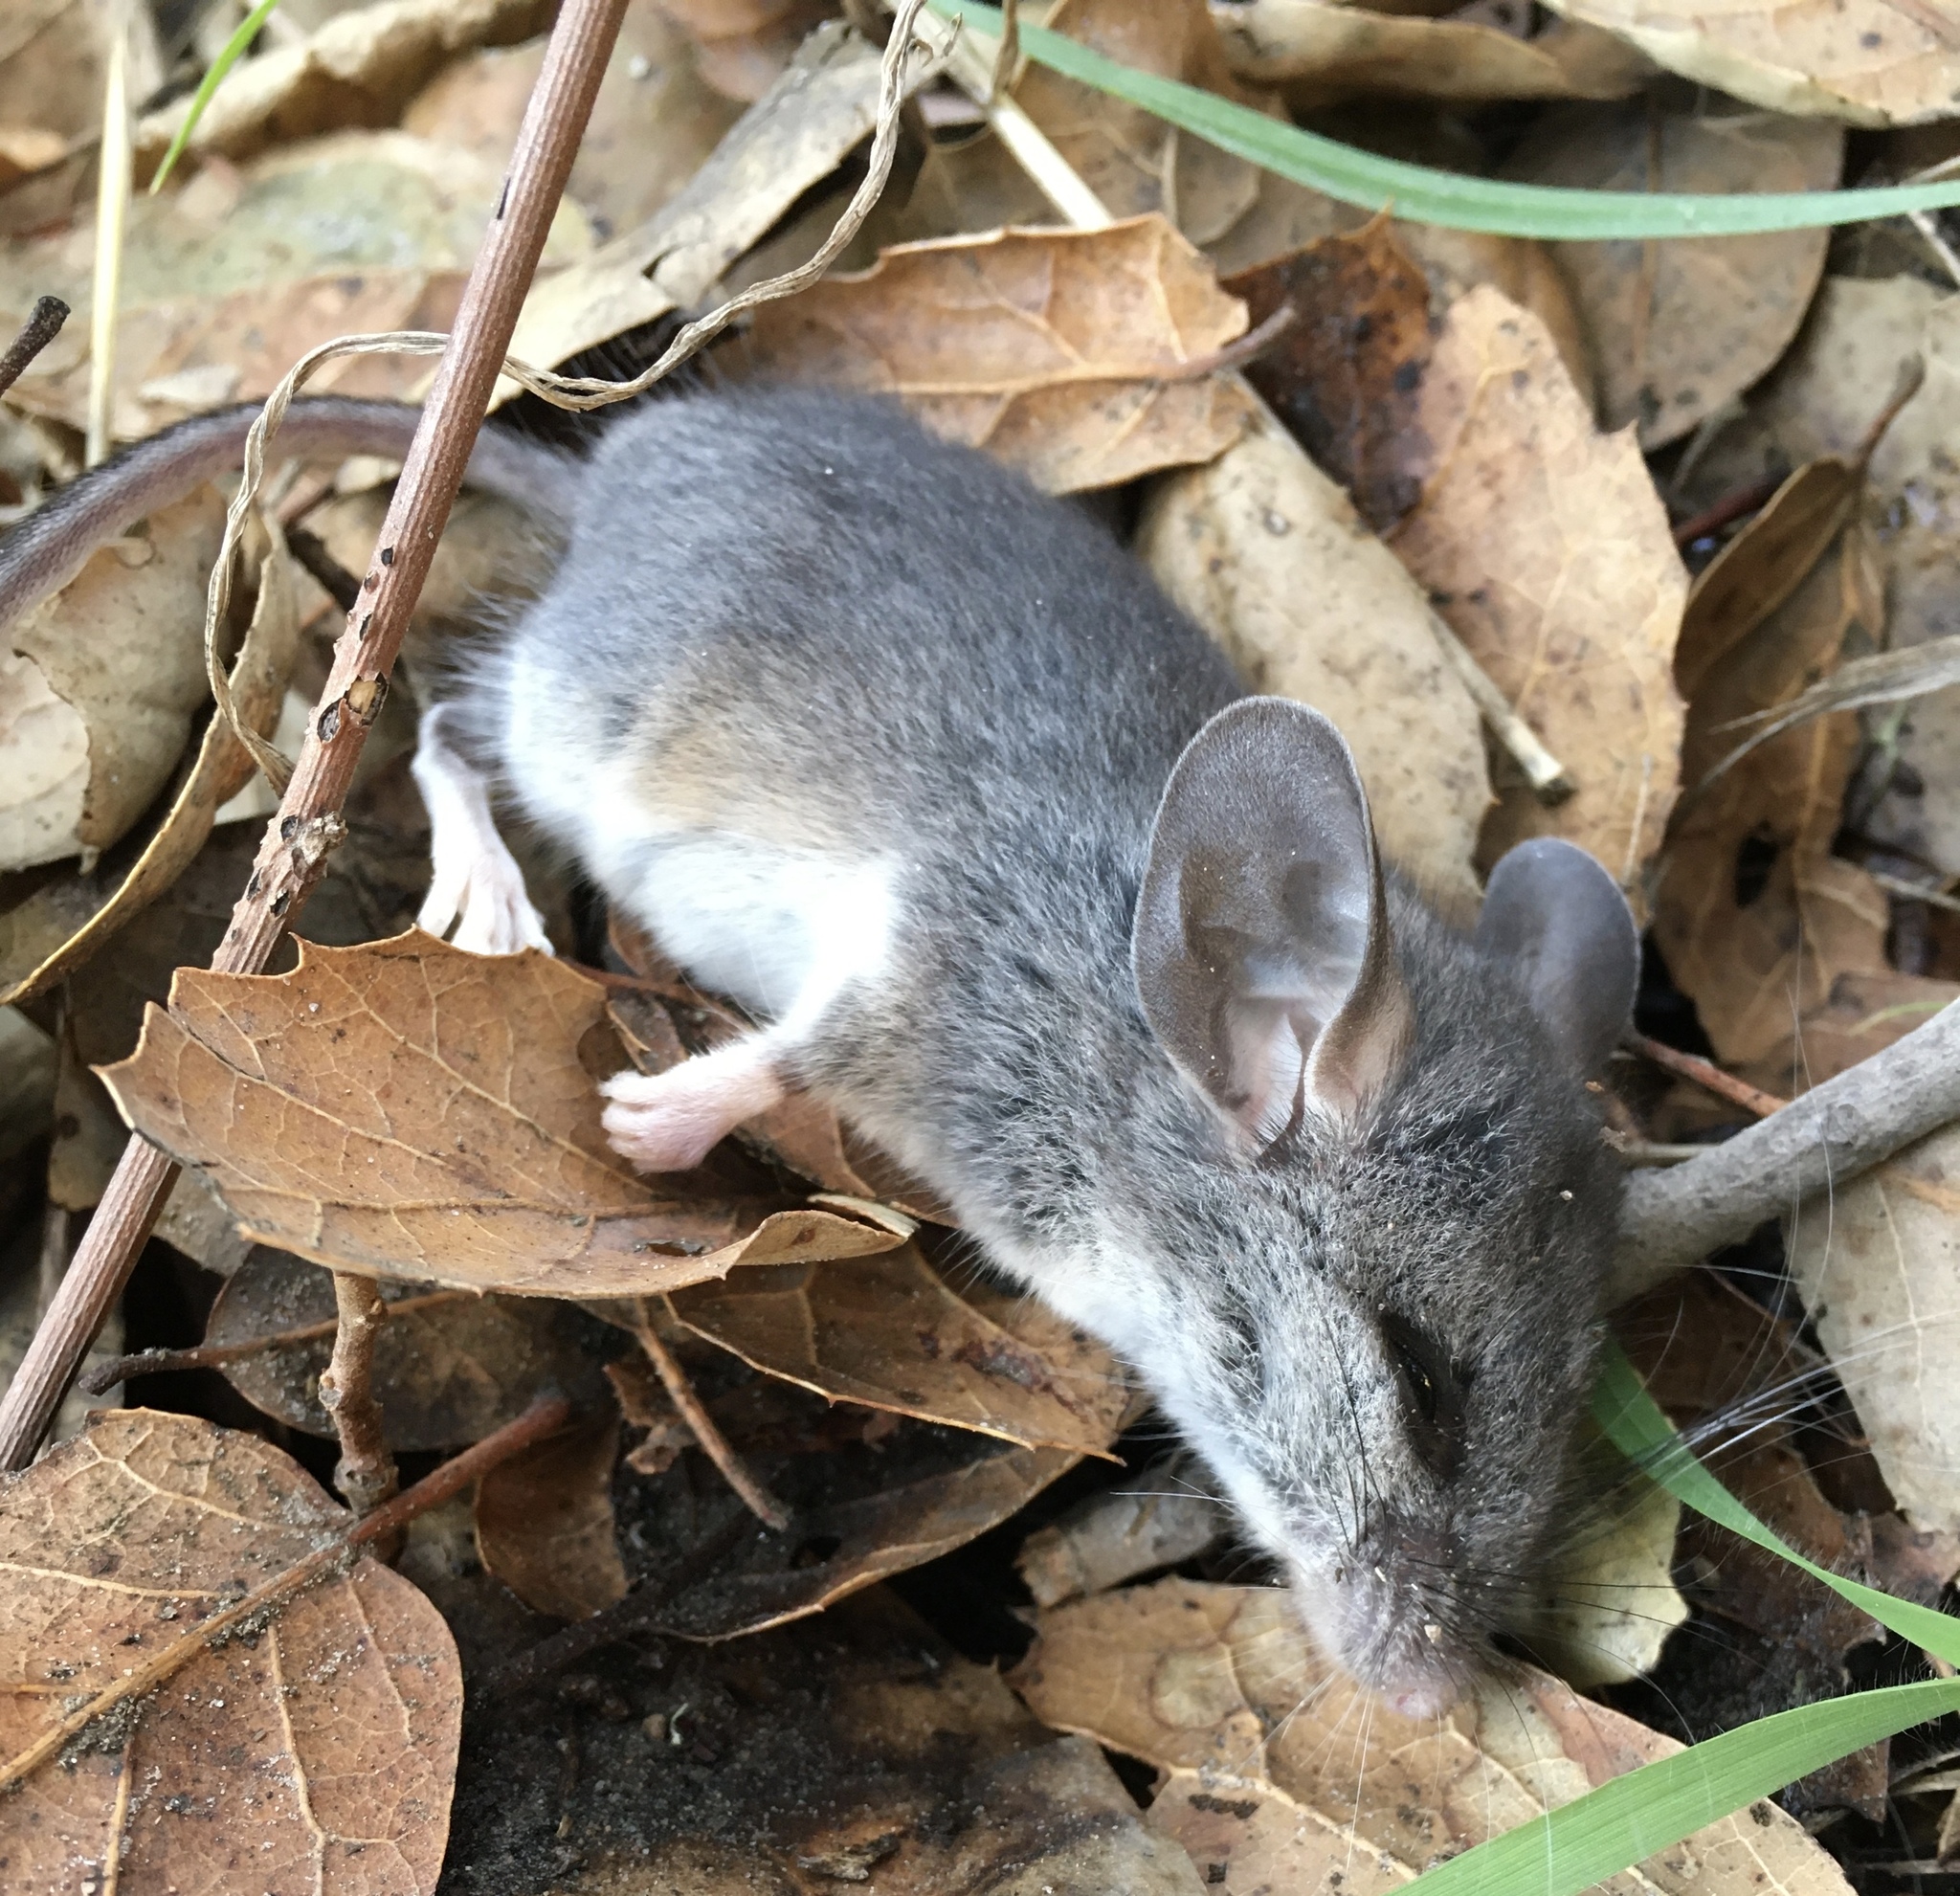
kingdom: Animalia
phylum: Chordata
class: Mammalia
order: Rodentia
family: Cricetidae
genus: Peromyscus
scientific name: Peromyscus californicus
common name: California deermouse
